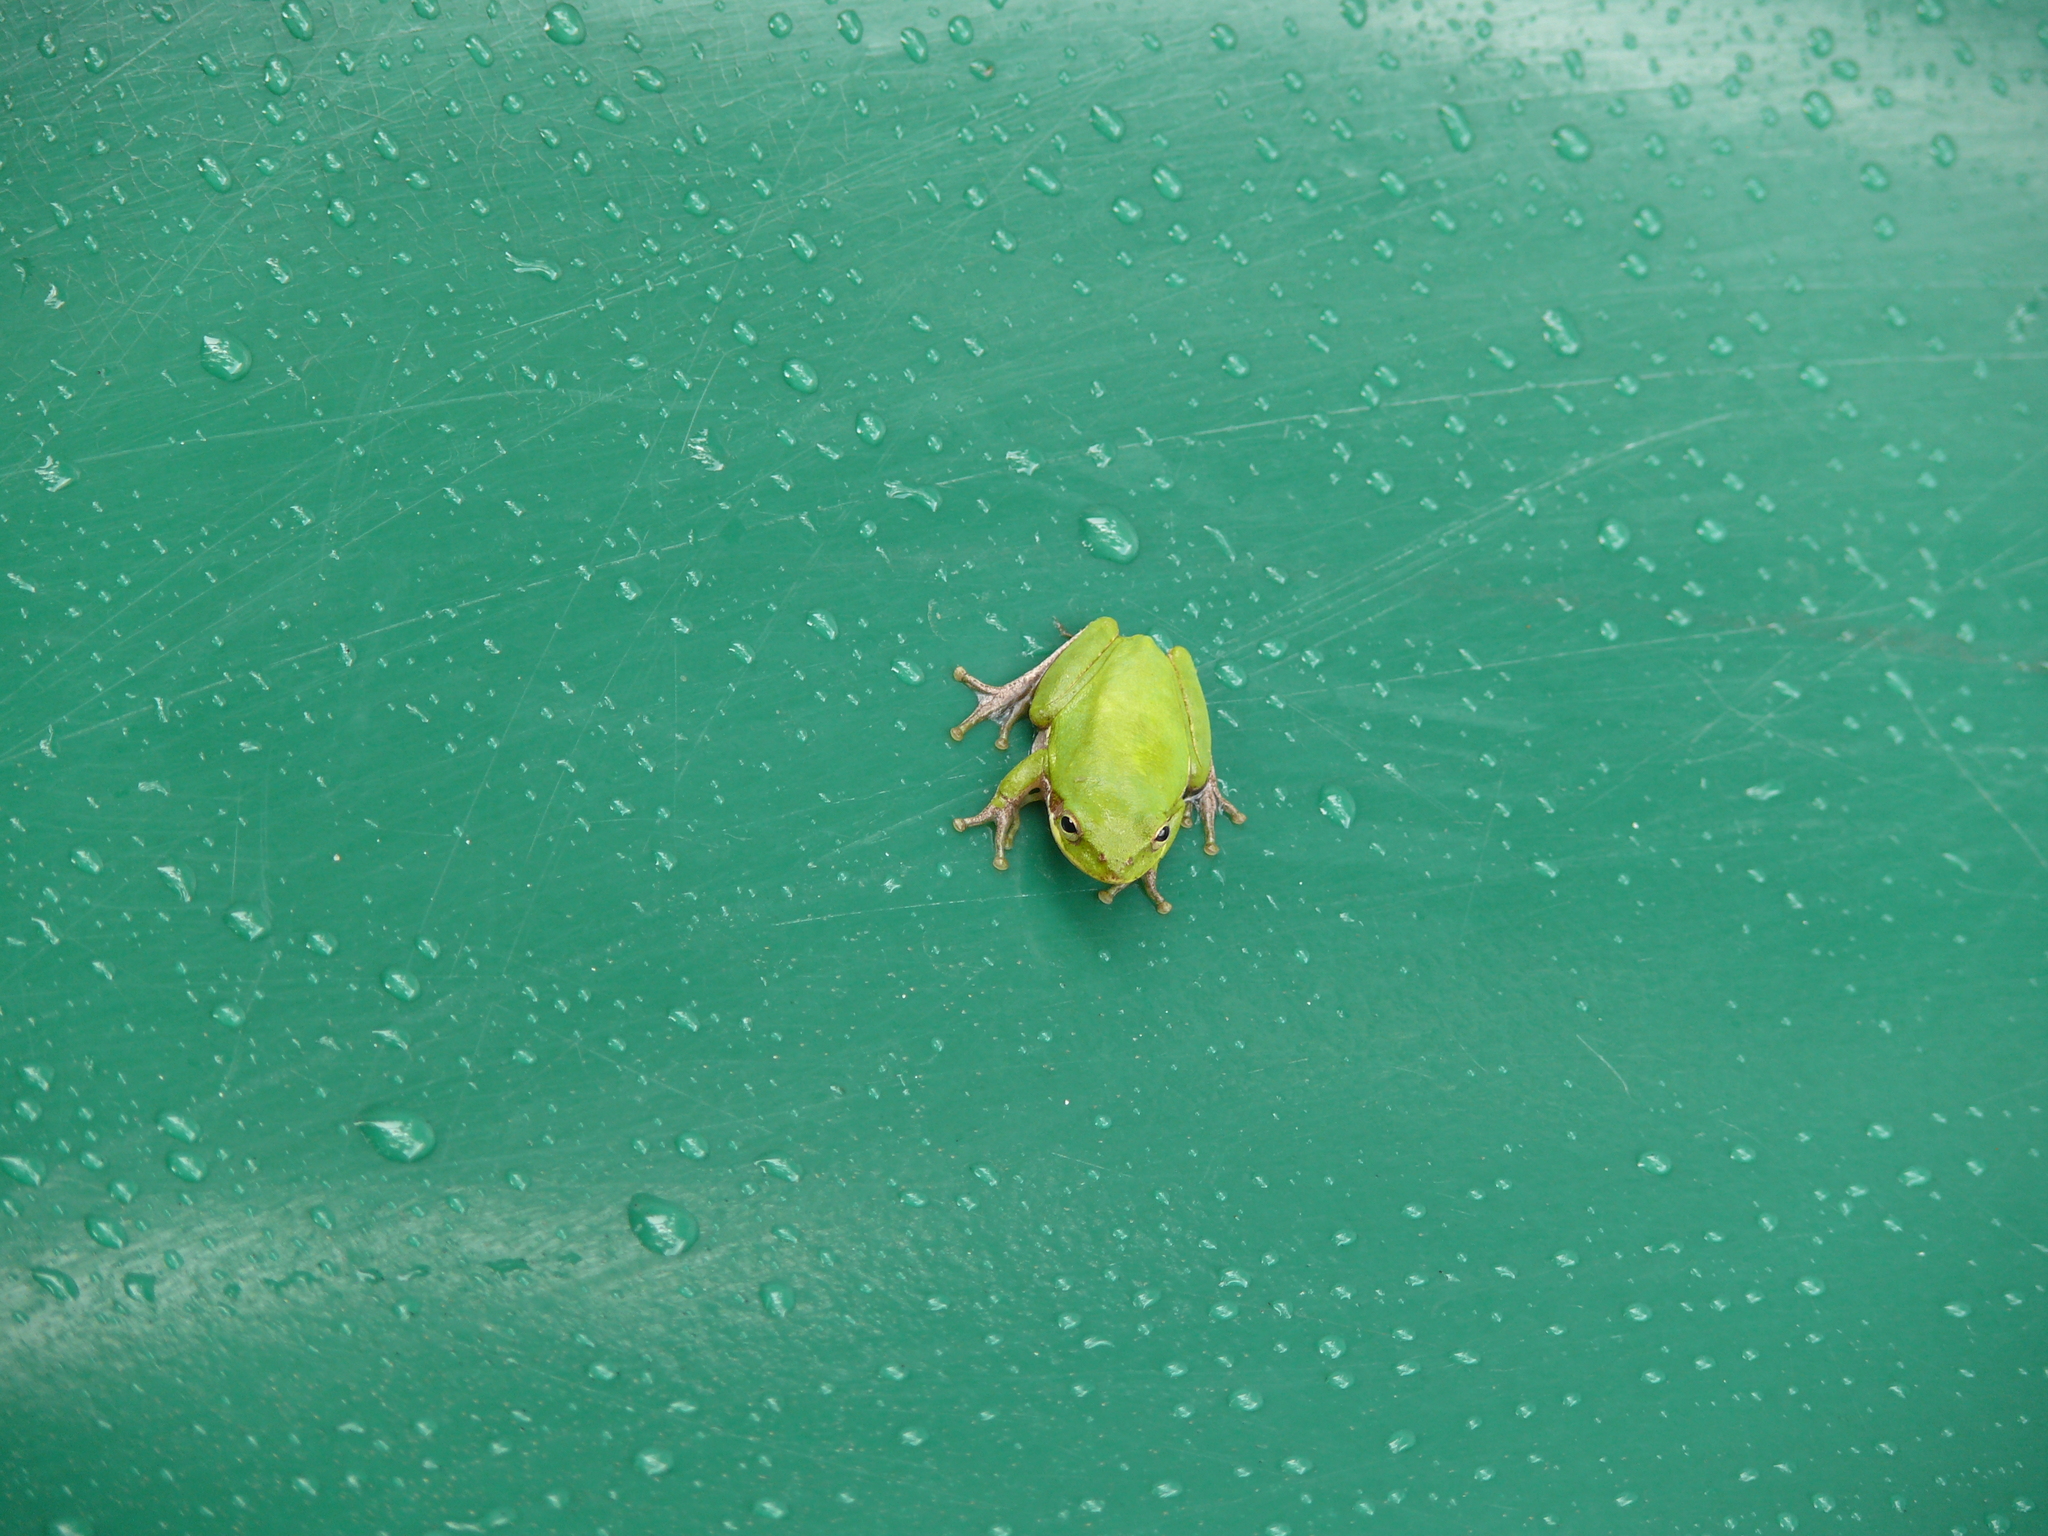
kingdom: Animalia
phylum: Chordata
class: Amphibia
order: Anura
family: Hylidae
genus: Dryophytes
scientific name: Dryophytes squirellus
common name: Squirrel treefrog
